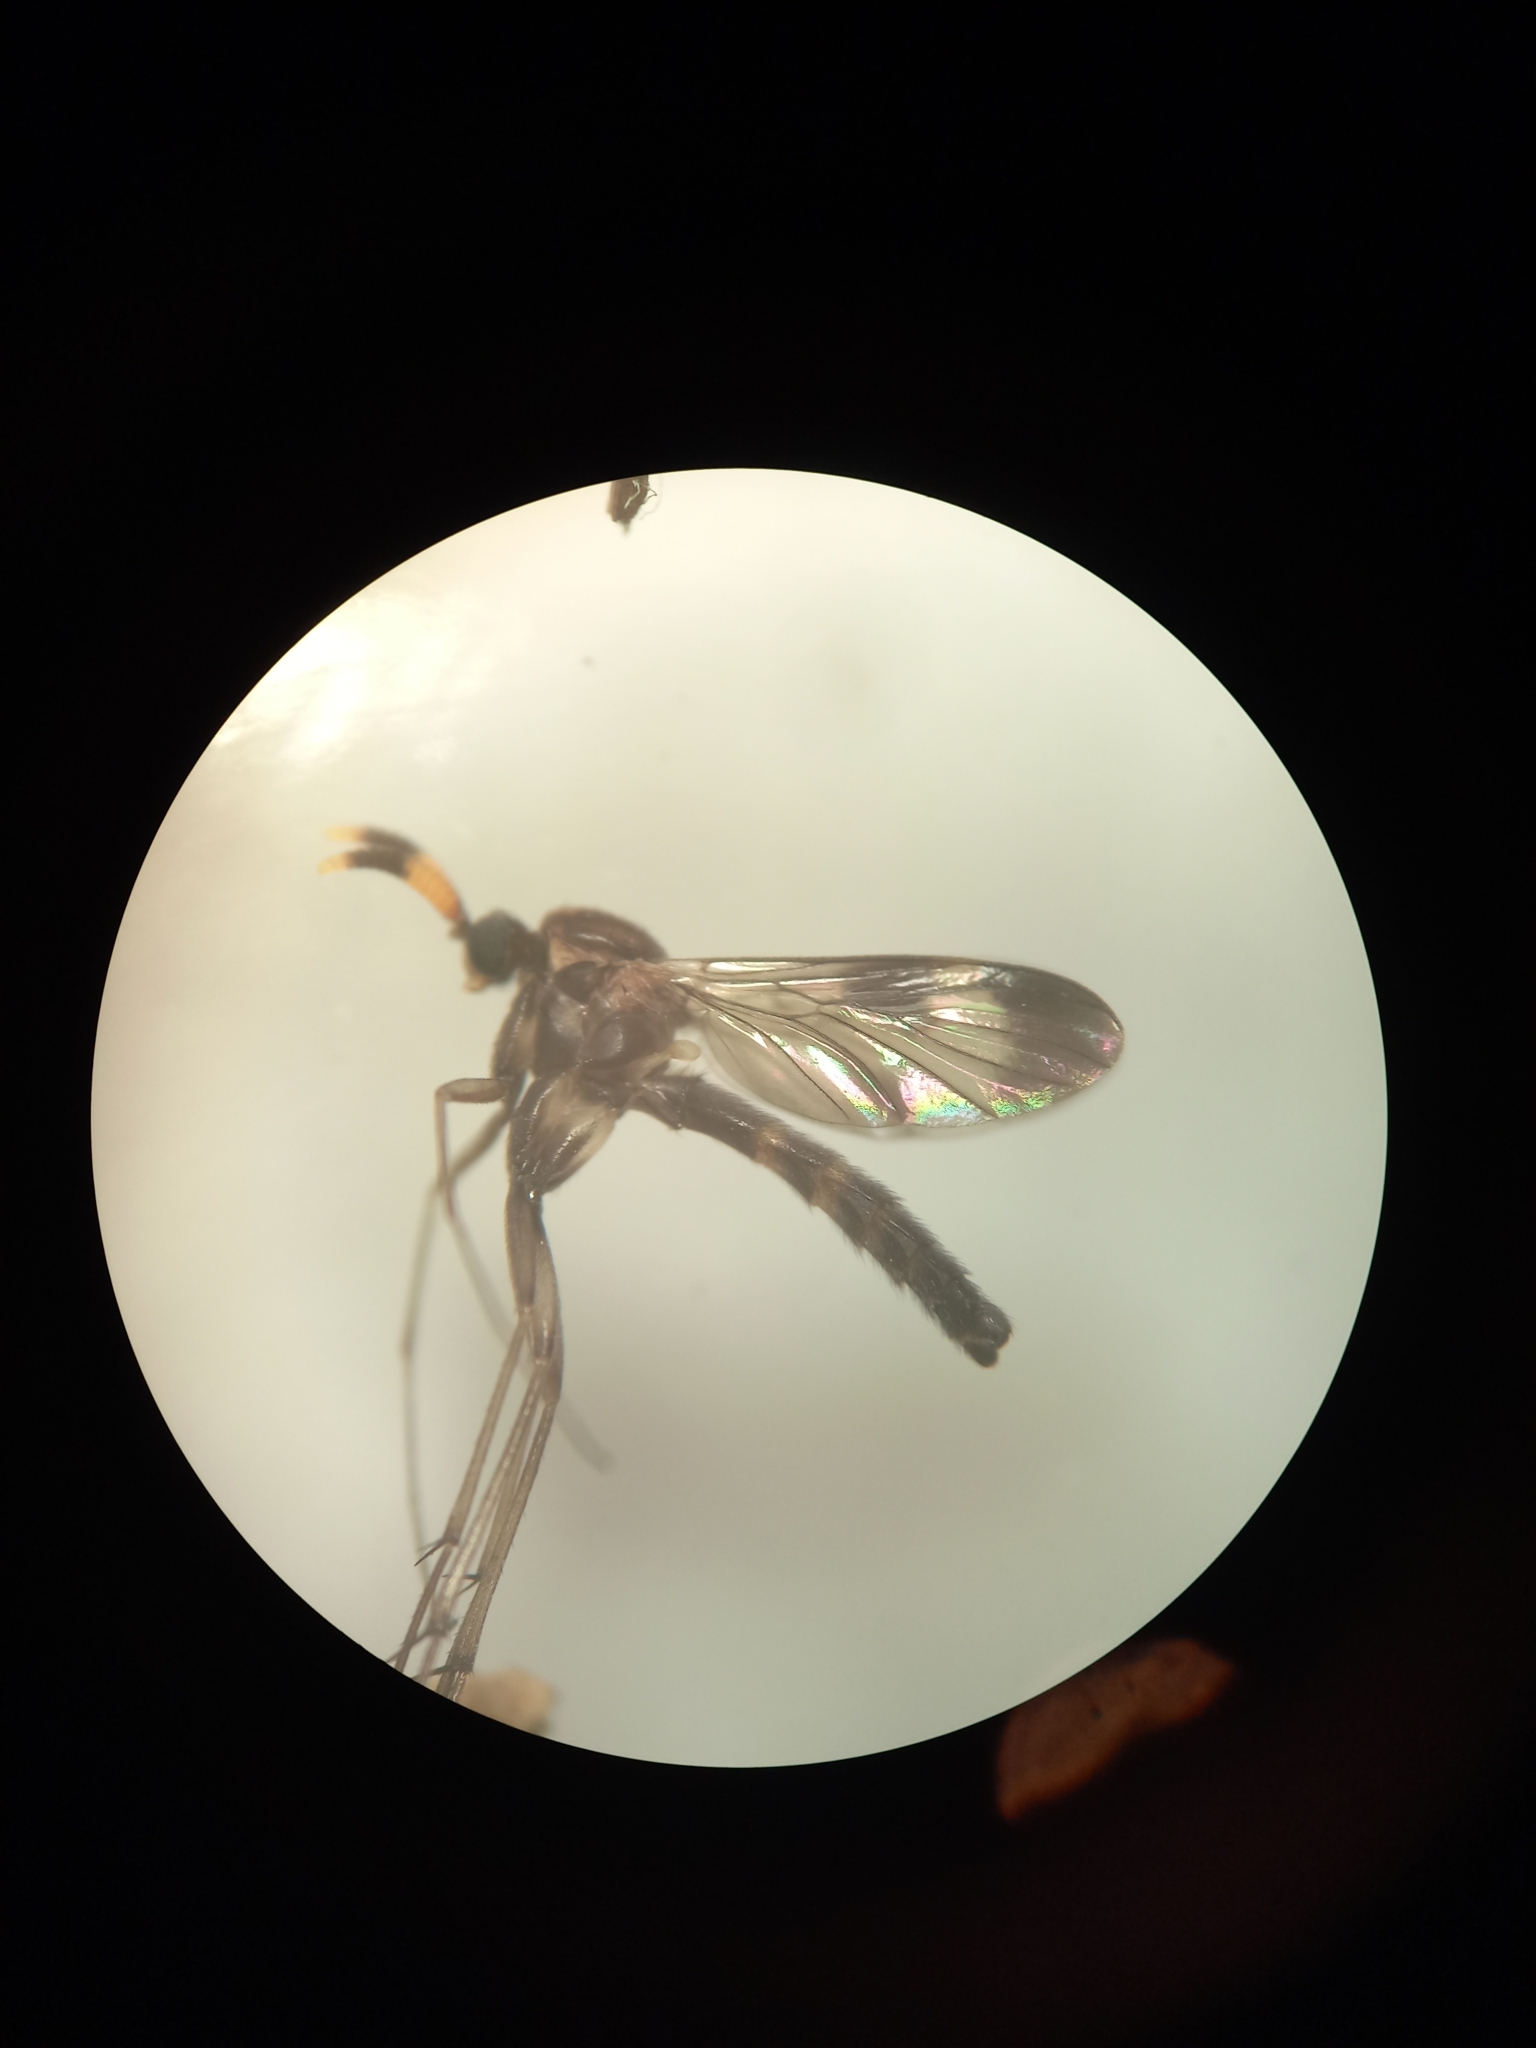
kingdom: Animalia
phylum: Arthropoda
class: Insecta
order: Diptera
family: Keroplatidae
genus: Cerotelion
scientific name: Cerotelion leucoceras
